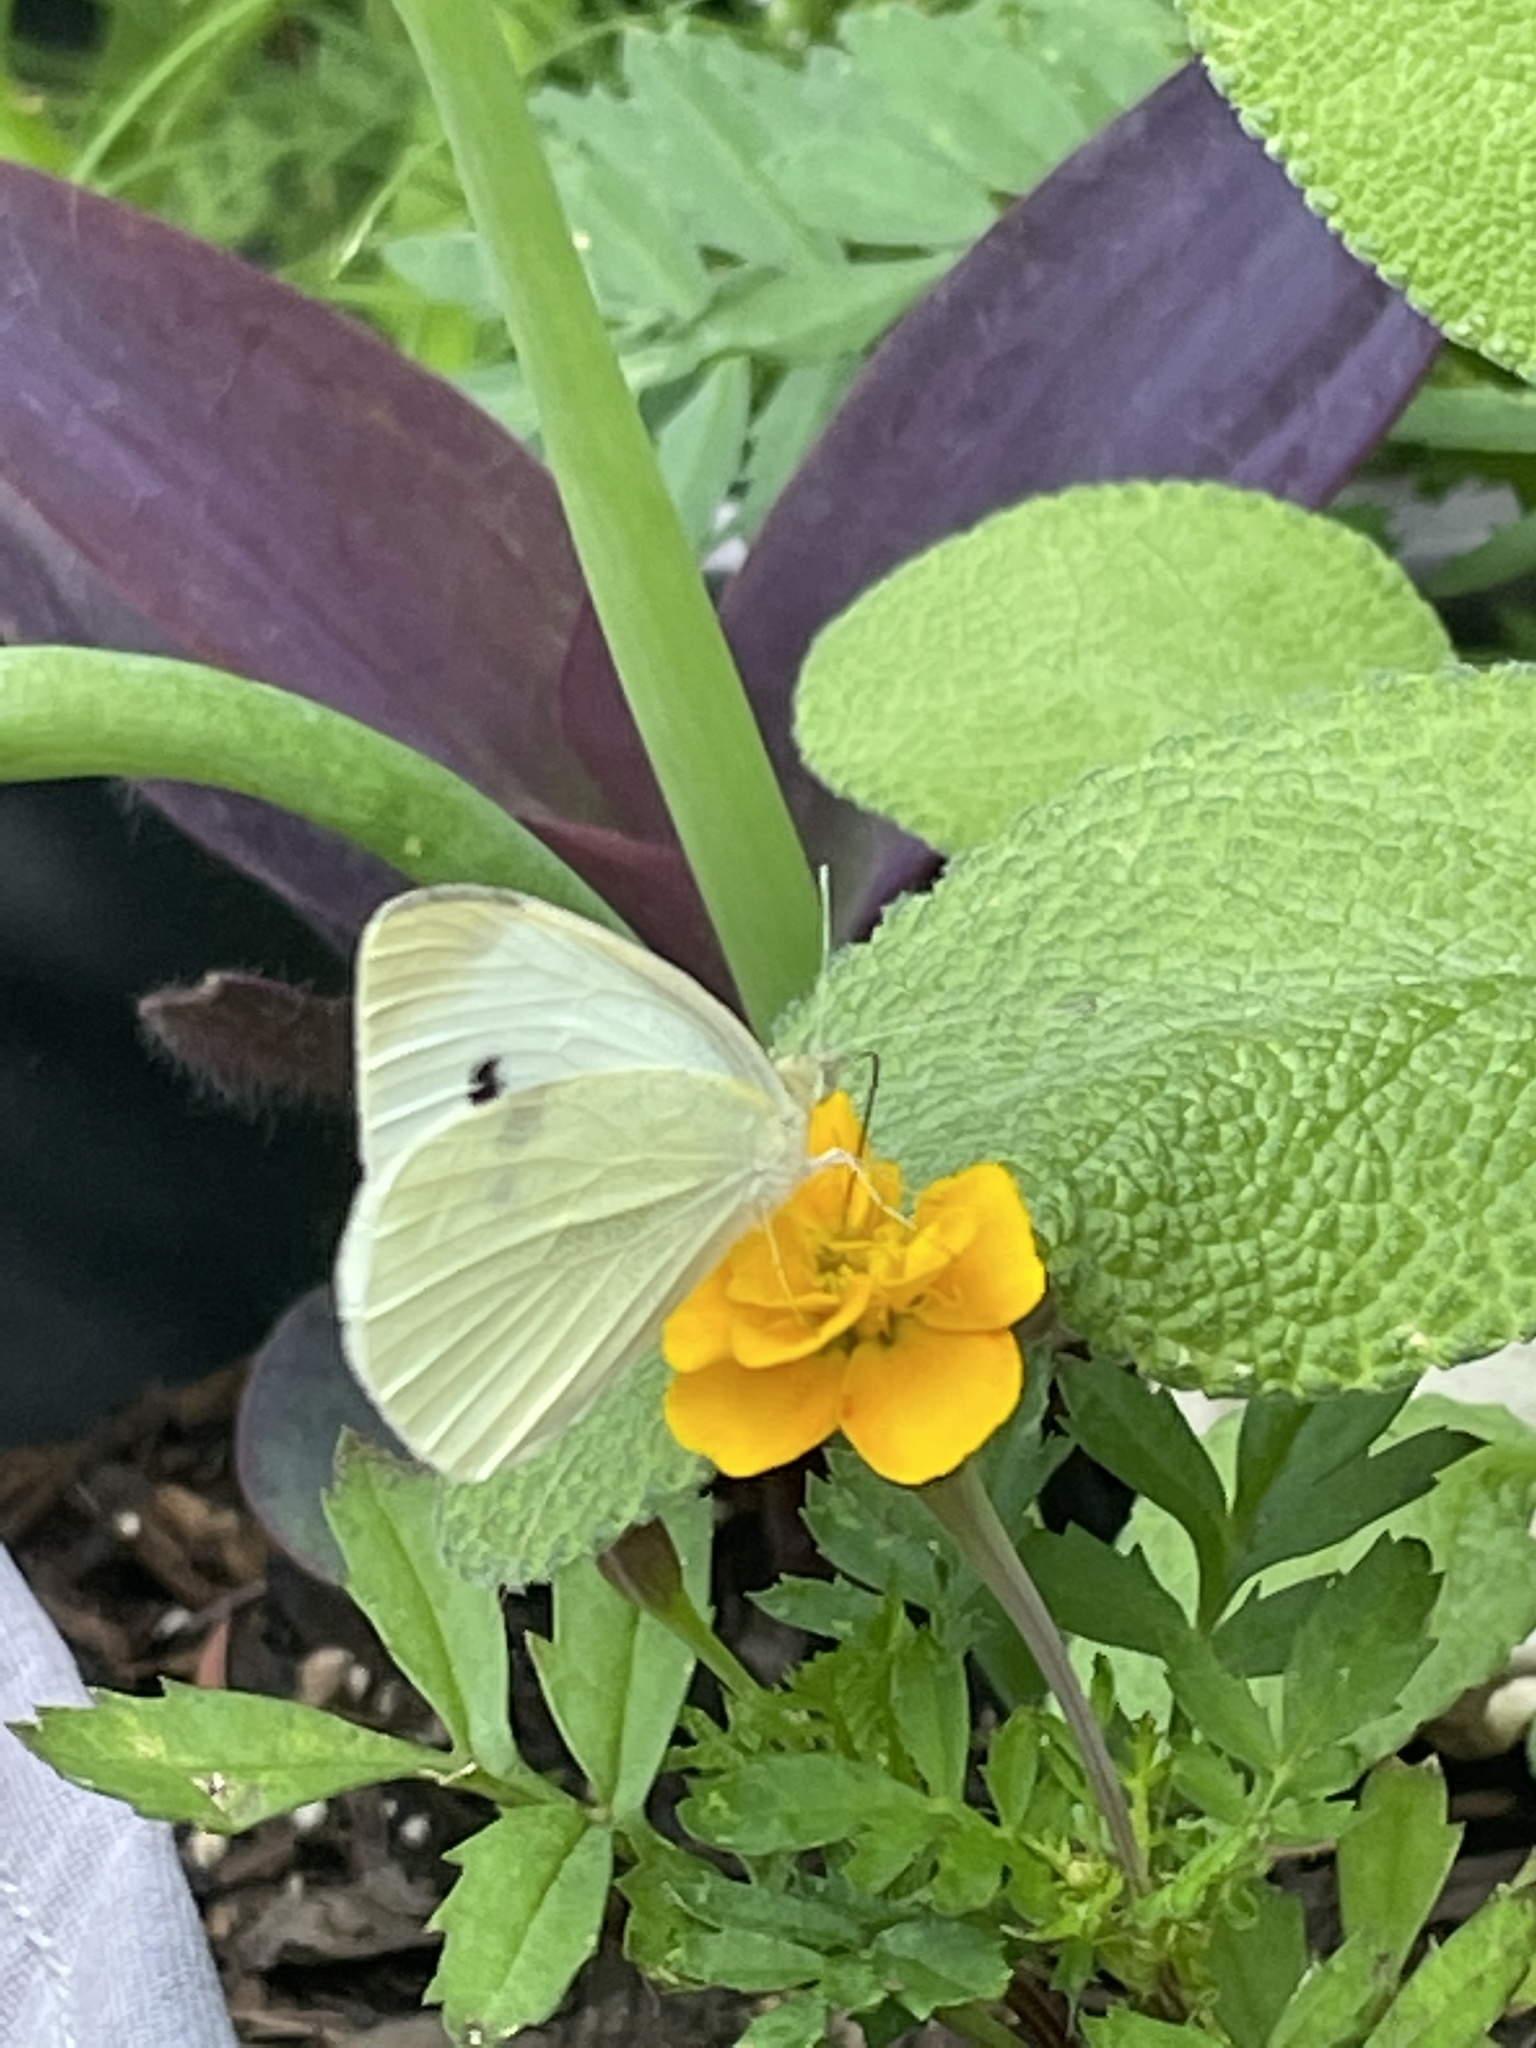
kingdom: Animalia
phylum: Arthropoda
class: Insecta
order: Lepidoptera
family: Pieridae
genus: Pieris
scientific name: Pieris rapae
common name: Small white
